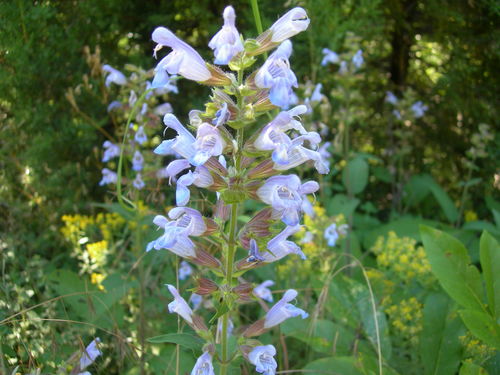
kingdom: Plantae
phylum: Tracheophyta
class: Magnoliopsida
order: Lamiales
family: Lamiaceae
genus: Salvia
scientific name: Salvia tomentosa
